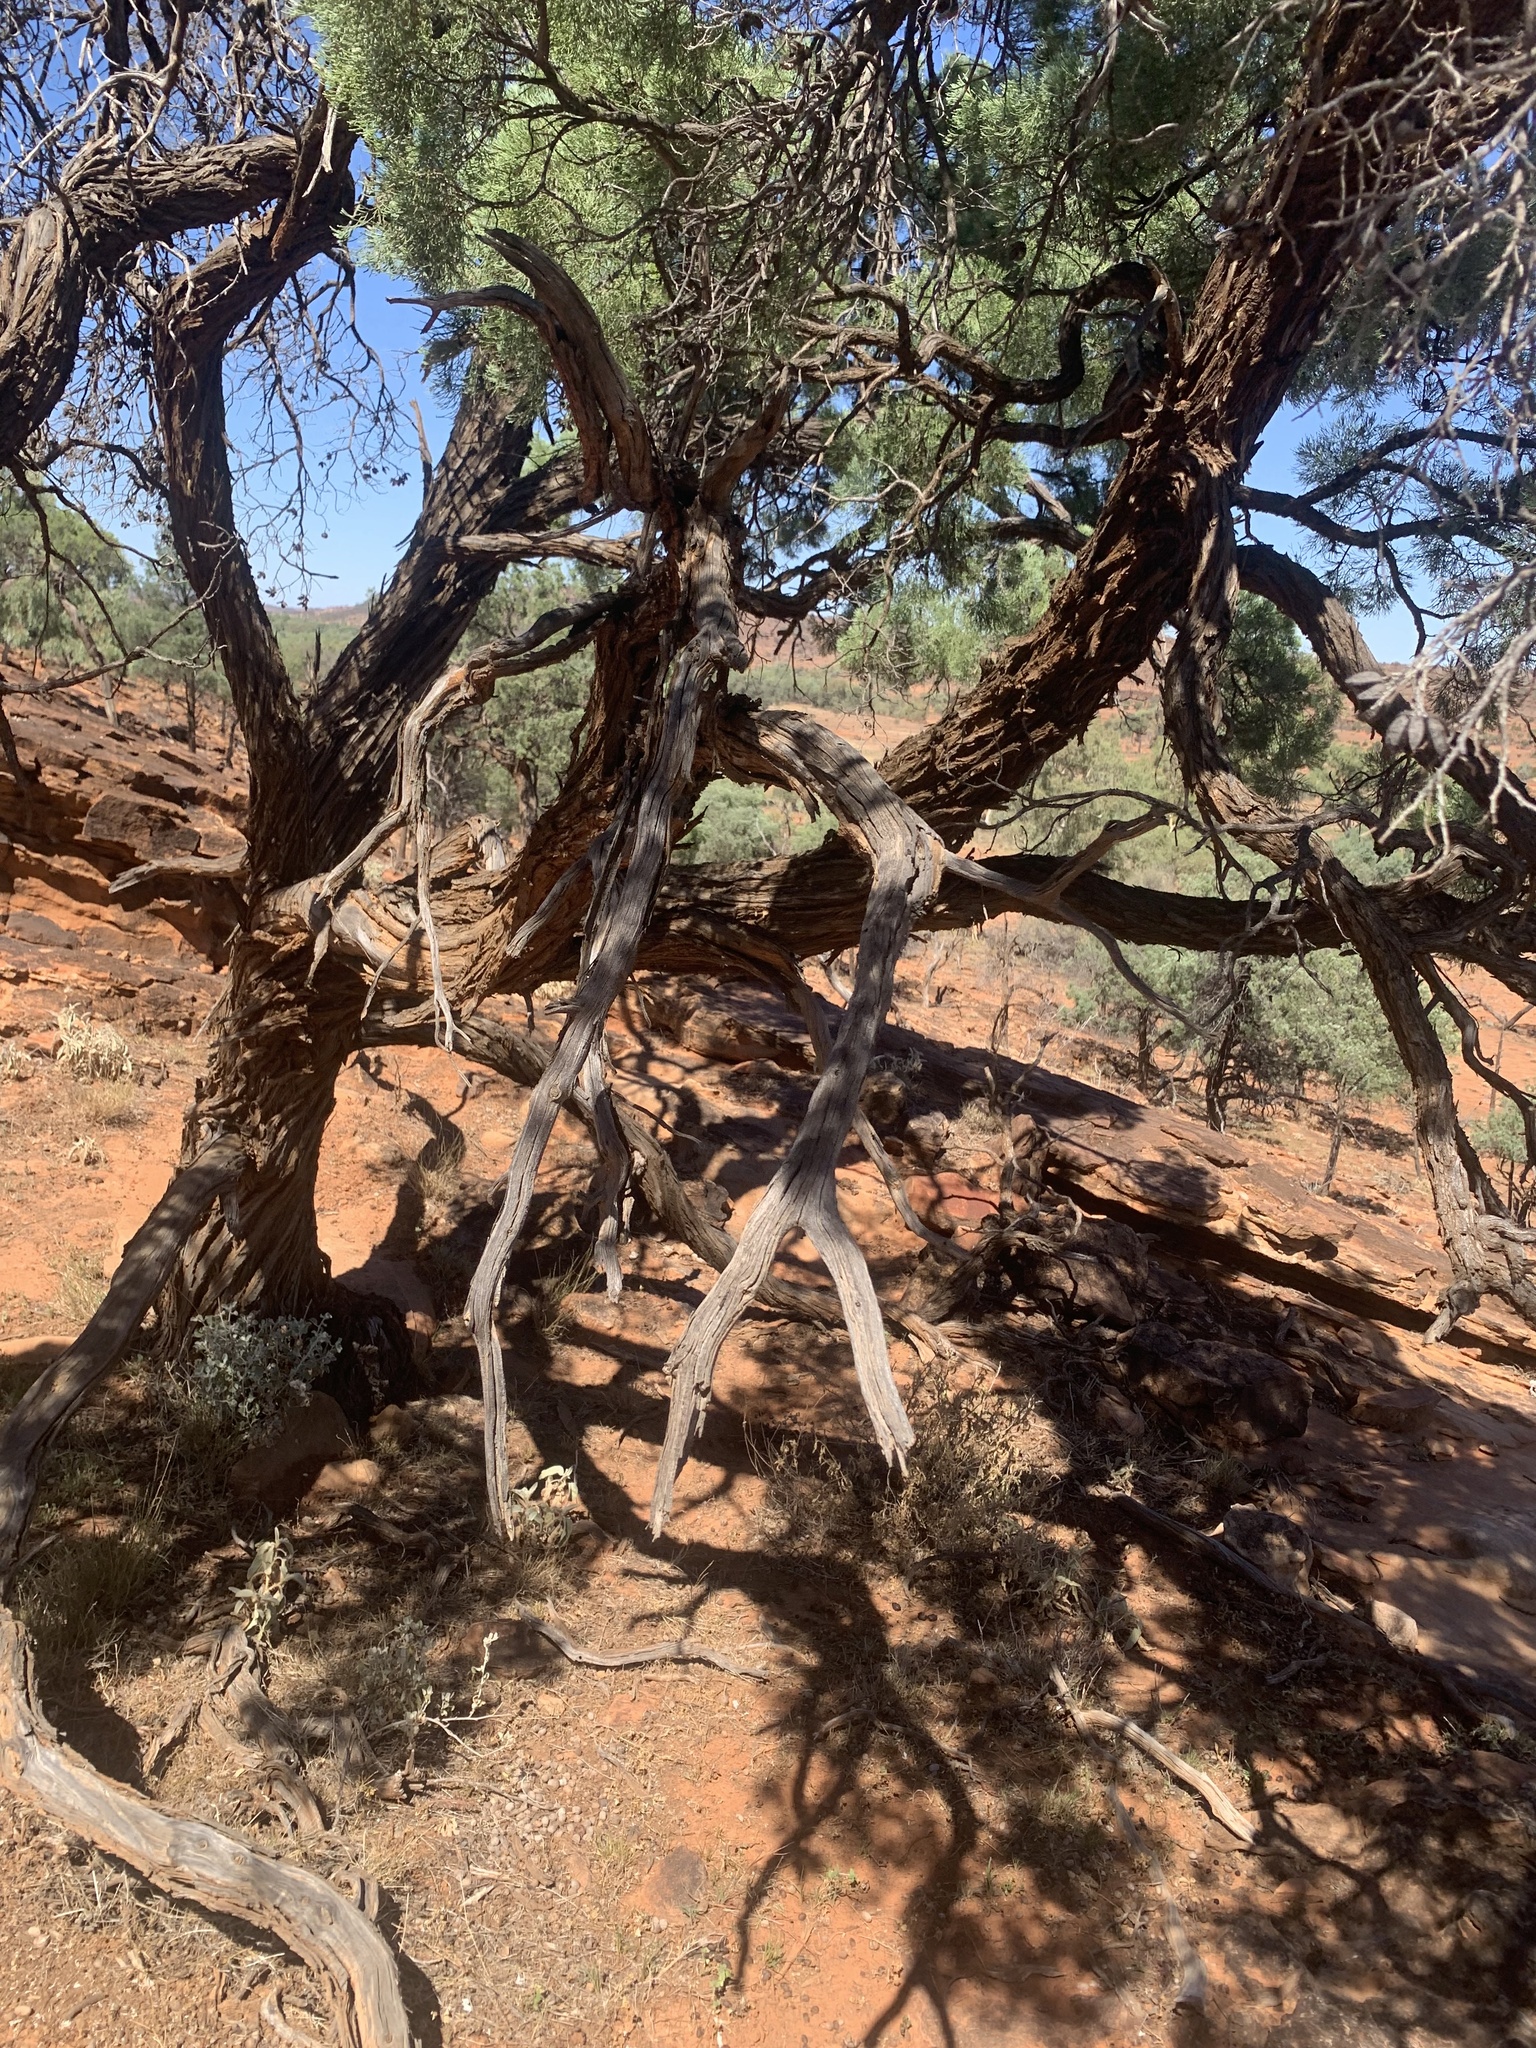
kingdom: Plantae
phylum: Tracheophyta
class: Pinopsida
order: Pinales
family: Cupressaceae
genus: Callitris
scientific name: Callitris columellaris
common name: White cypress-pine
